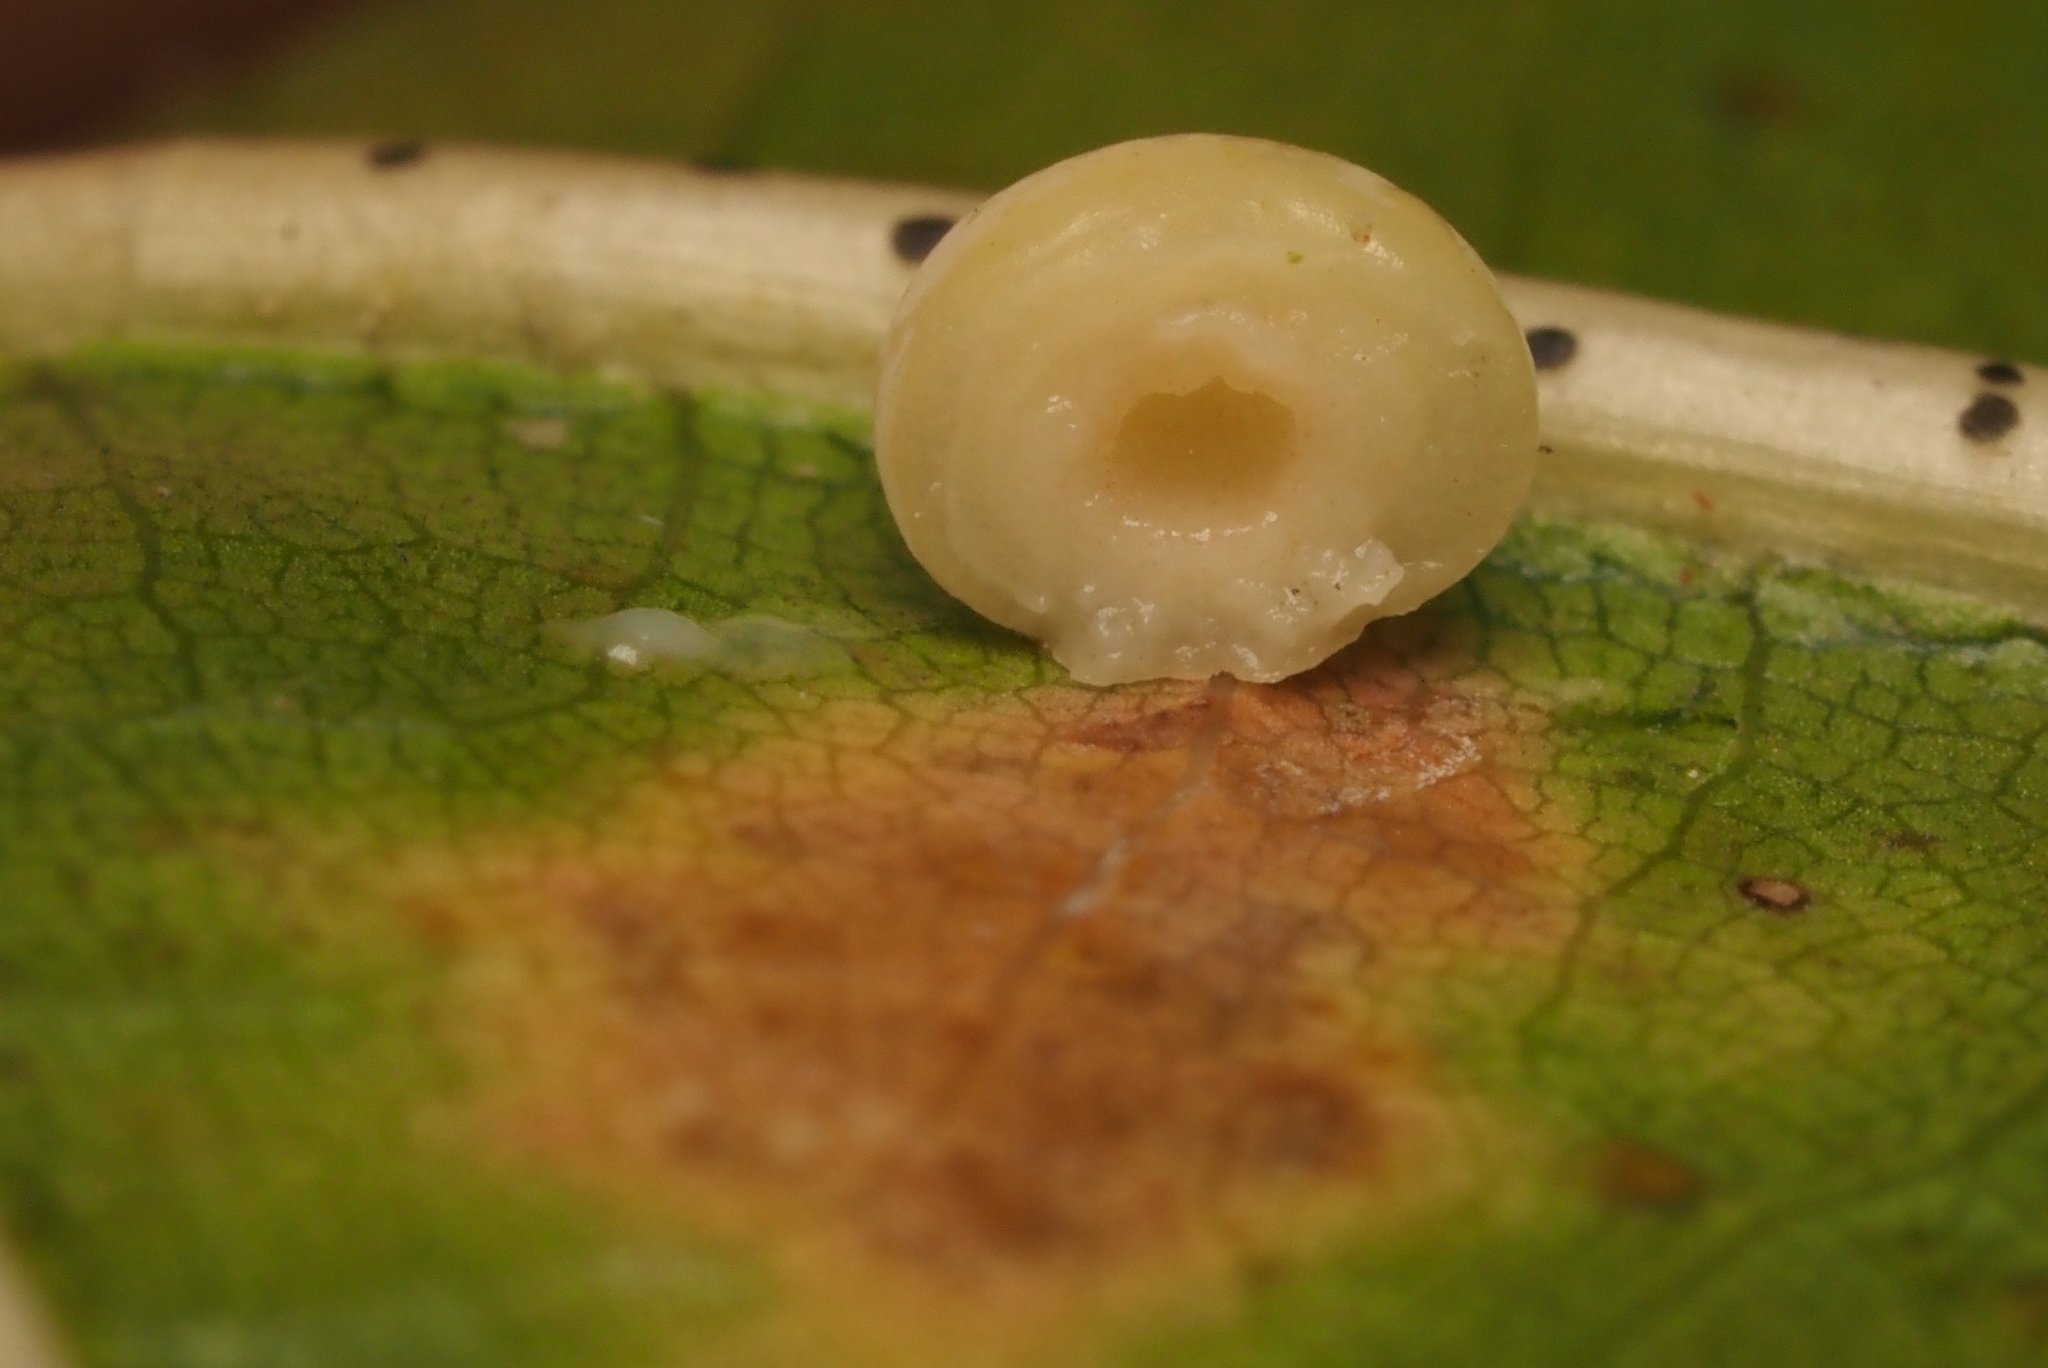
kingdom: Animalia
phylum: Arthropoda
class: Insecta
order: Hymenoptera
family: Cynipidae
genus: Zopheroteras
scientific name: Zopheroteras
